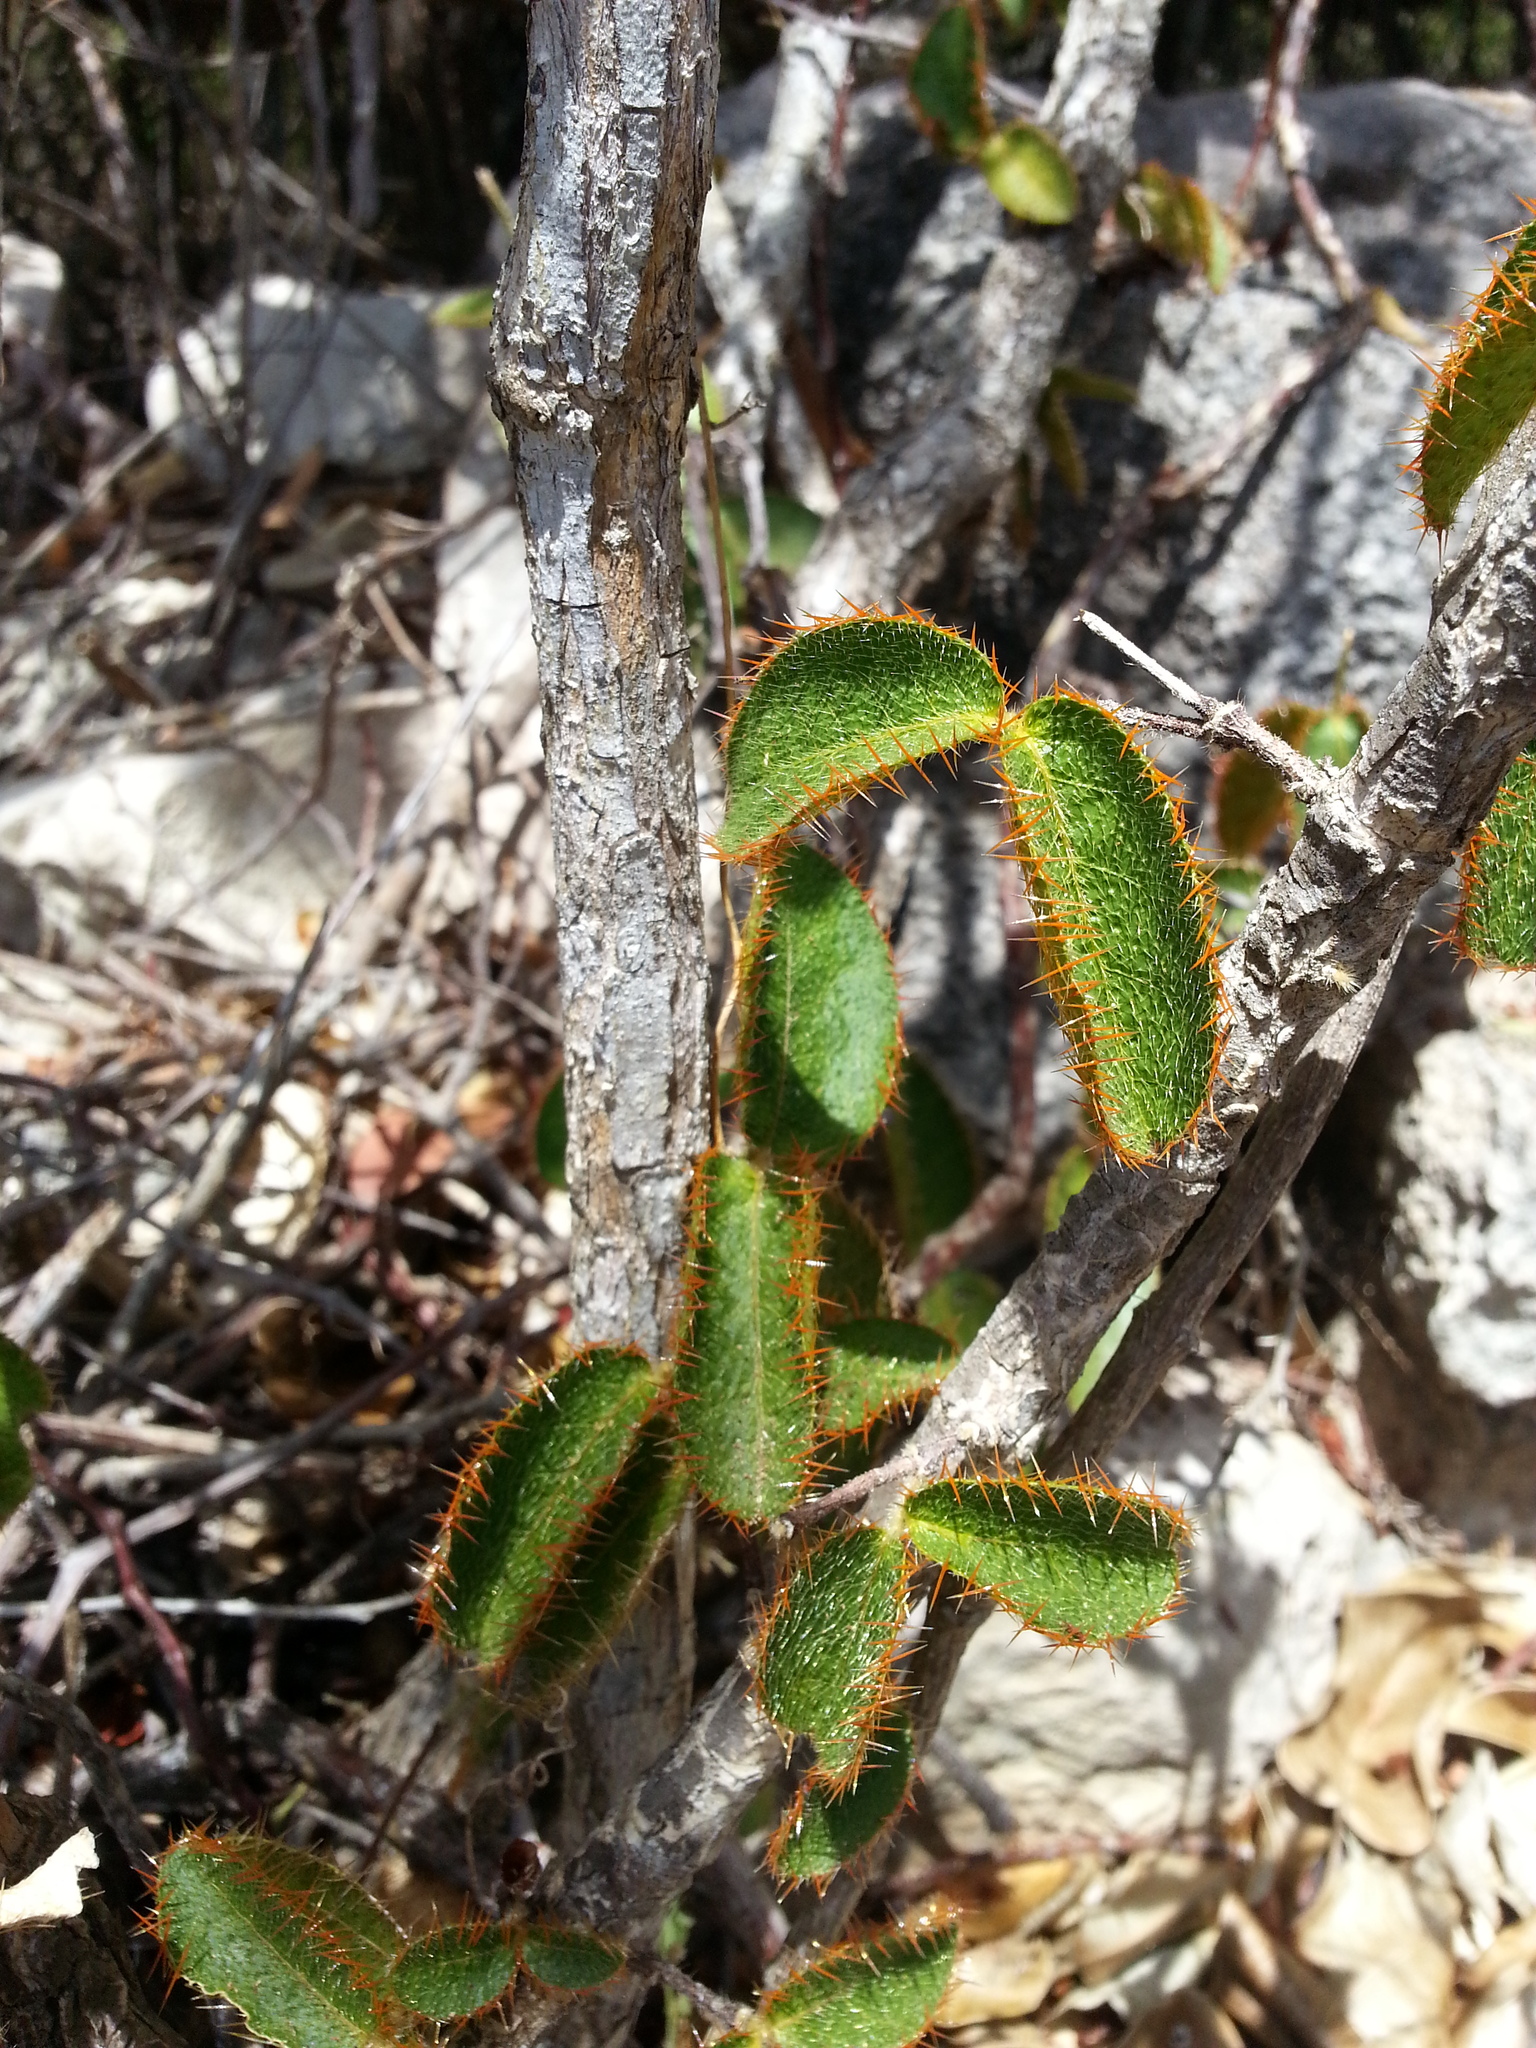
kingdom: Plantae
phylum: Tracheophyta
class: Magnoliopsida
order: Malpighiales
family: Malpighiaceae
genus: Malpighia
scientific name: Malpighia woodburyana
